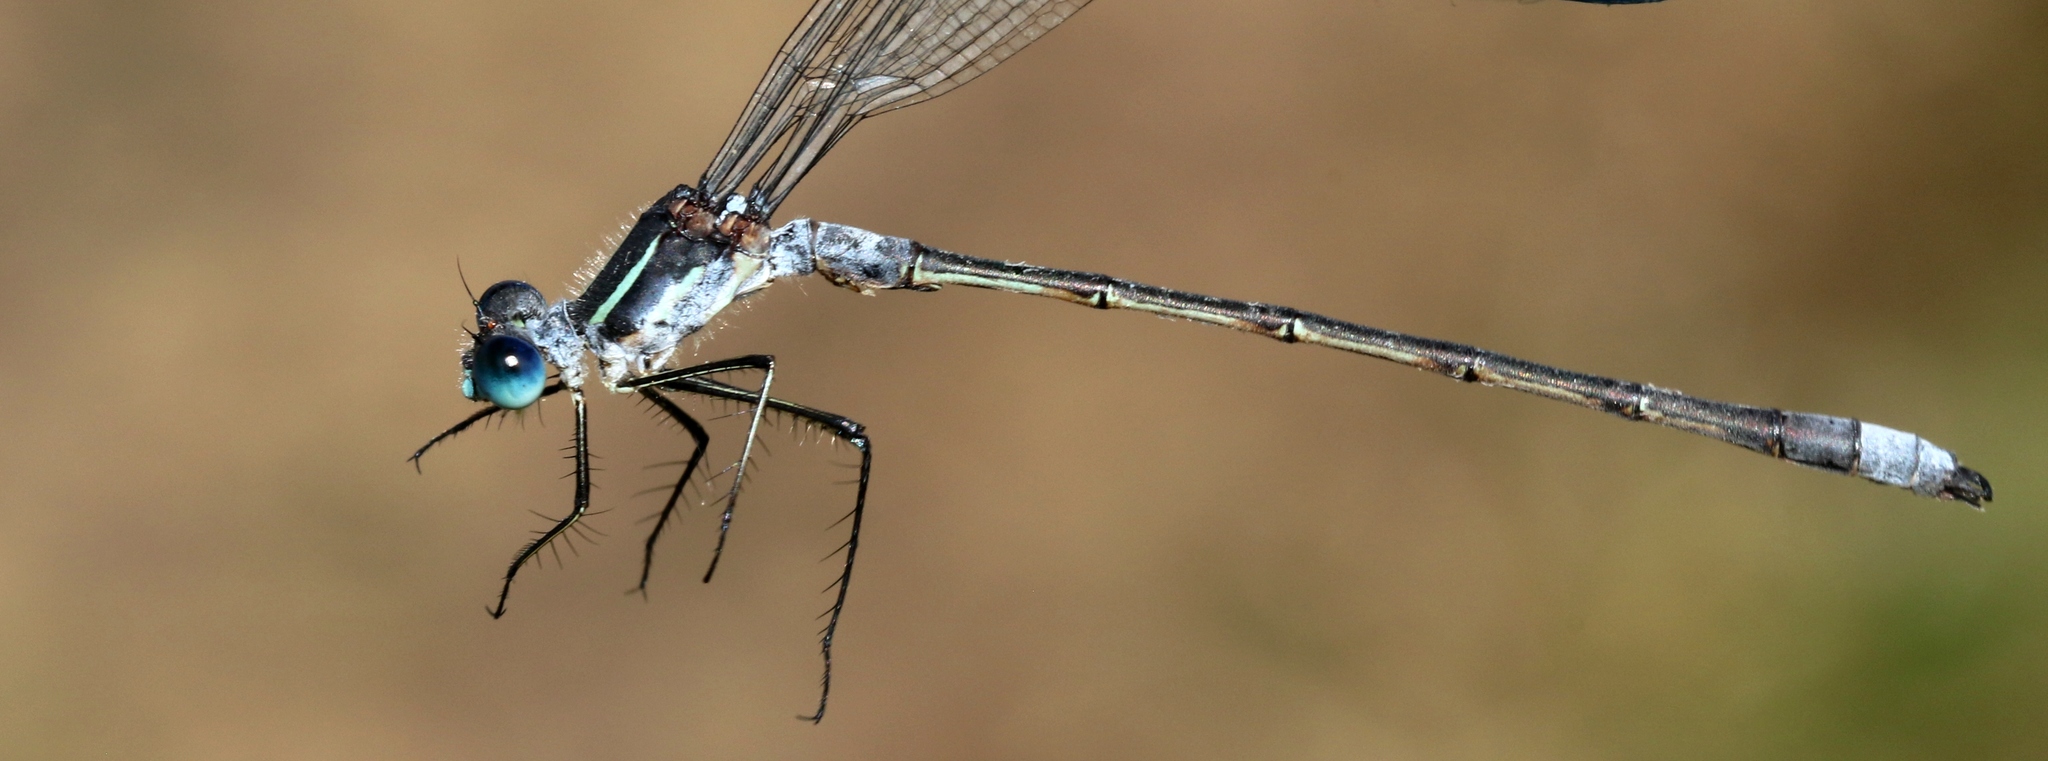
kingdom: Animalia
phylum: Arthropoda
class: Insecta
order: Odonata
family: Lestidae
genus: Lestes
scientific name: Lestes disjunctus
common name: Northern spreadwing
